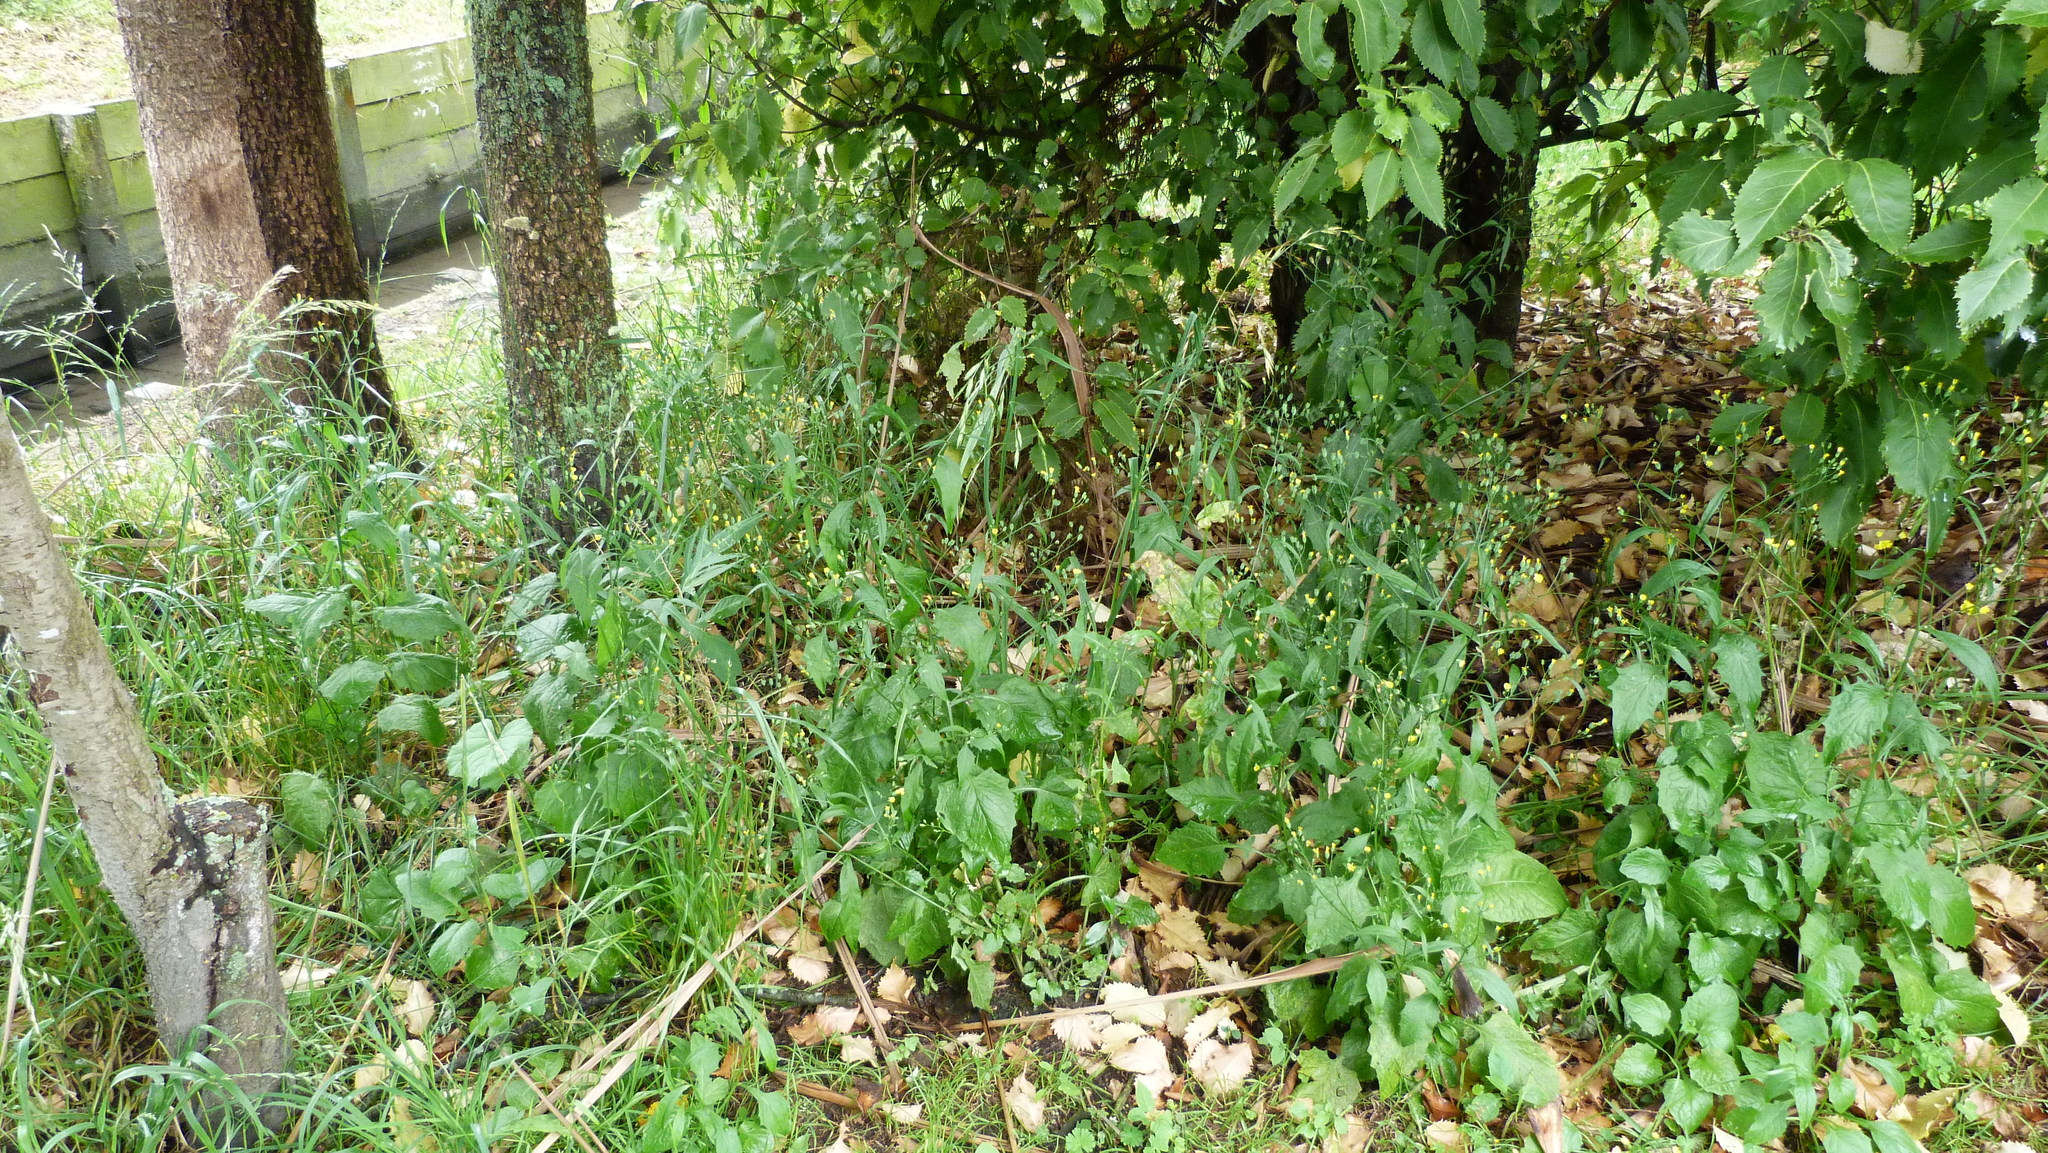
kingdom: Plantae
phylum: Tracheophyta
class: Magnoliopsida
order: Asterales
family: Asteraceae
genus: Lapsana
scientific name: Lapsana communis
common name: Nipplewort
